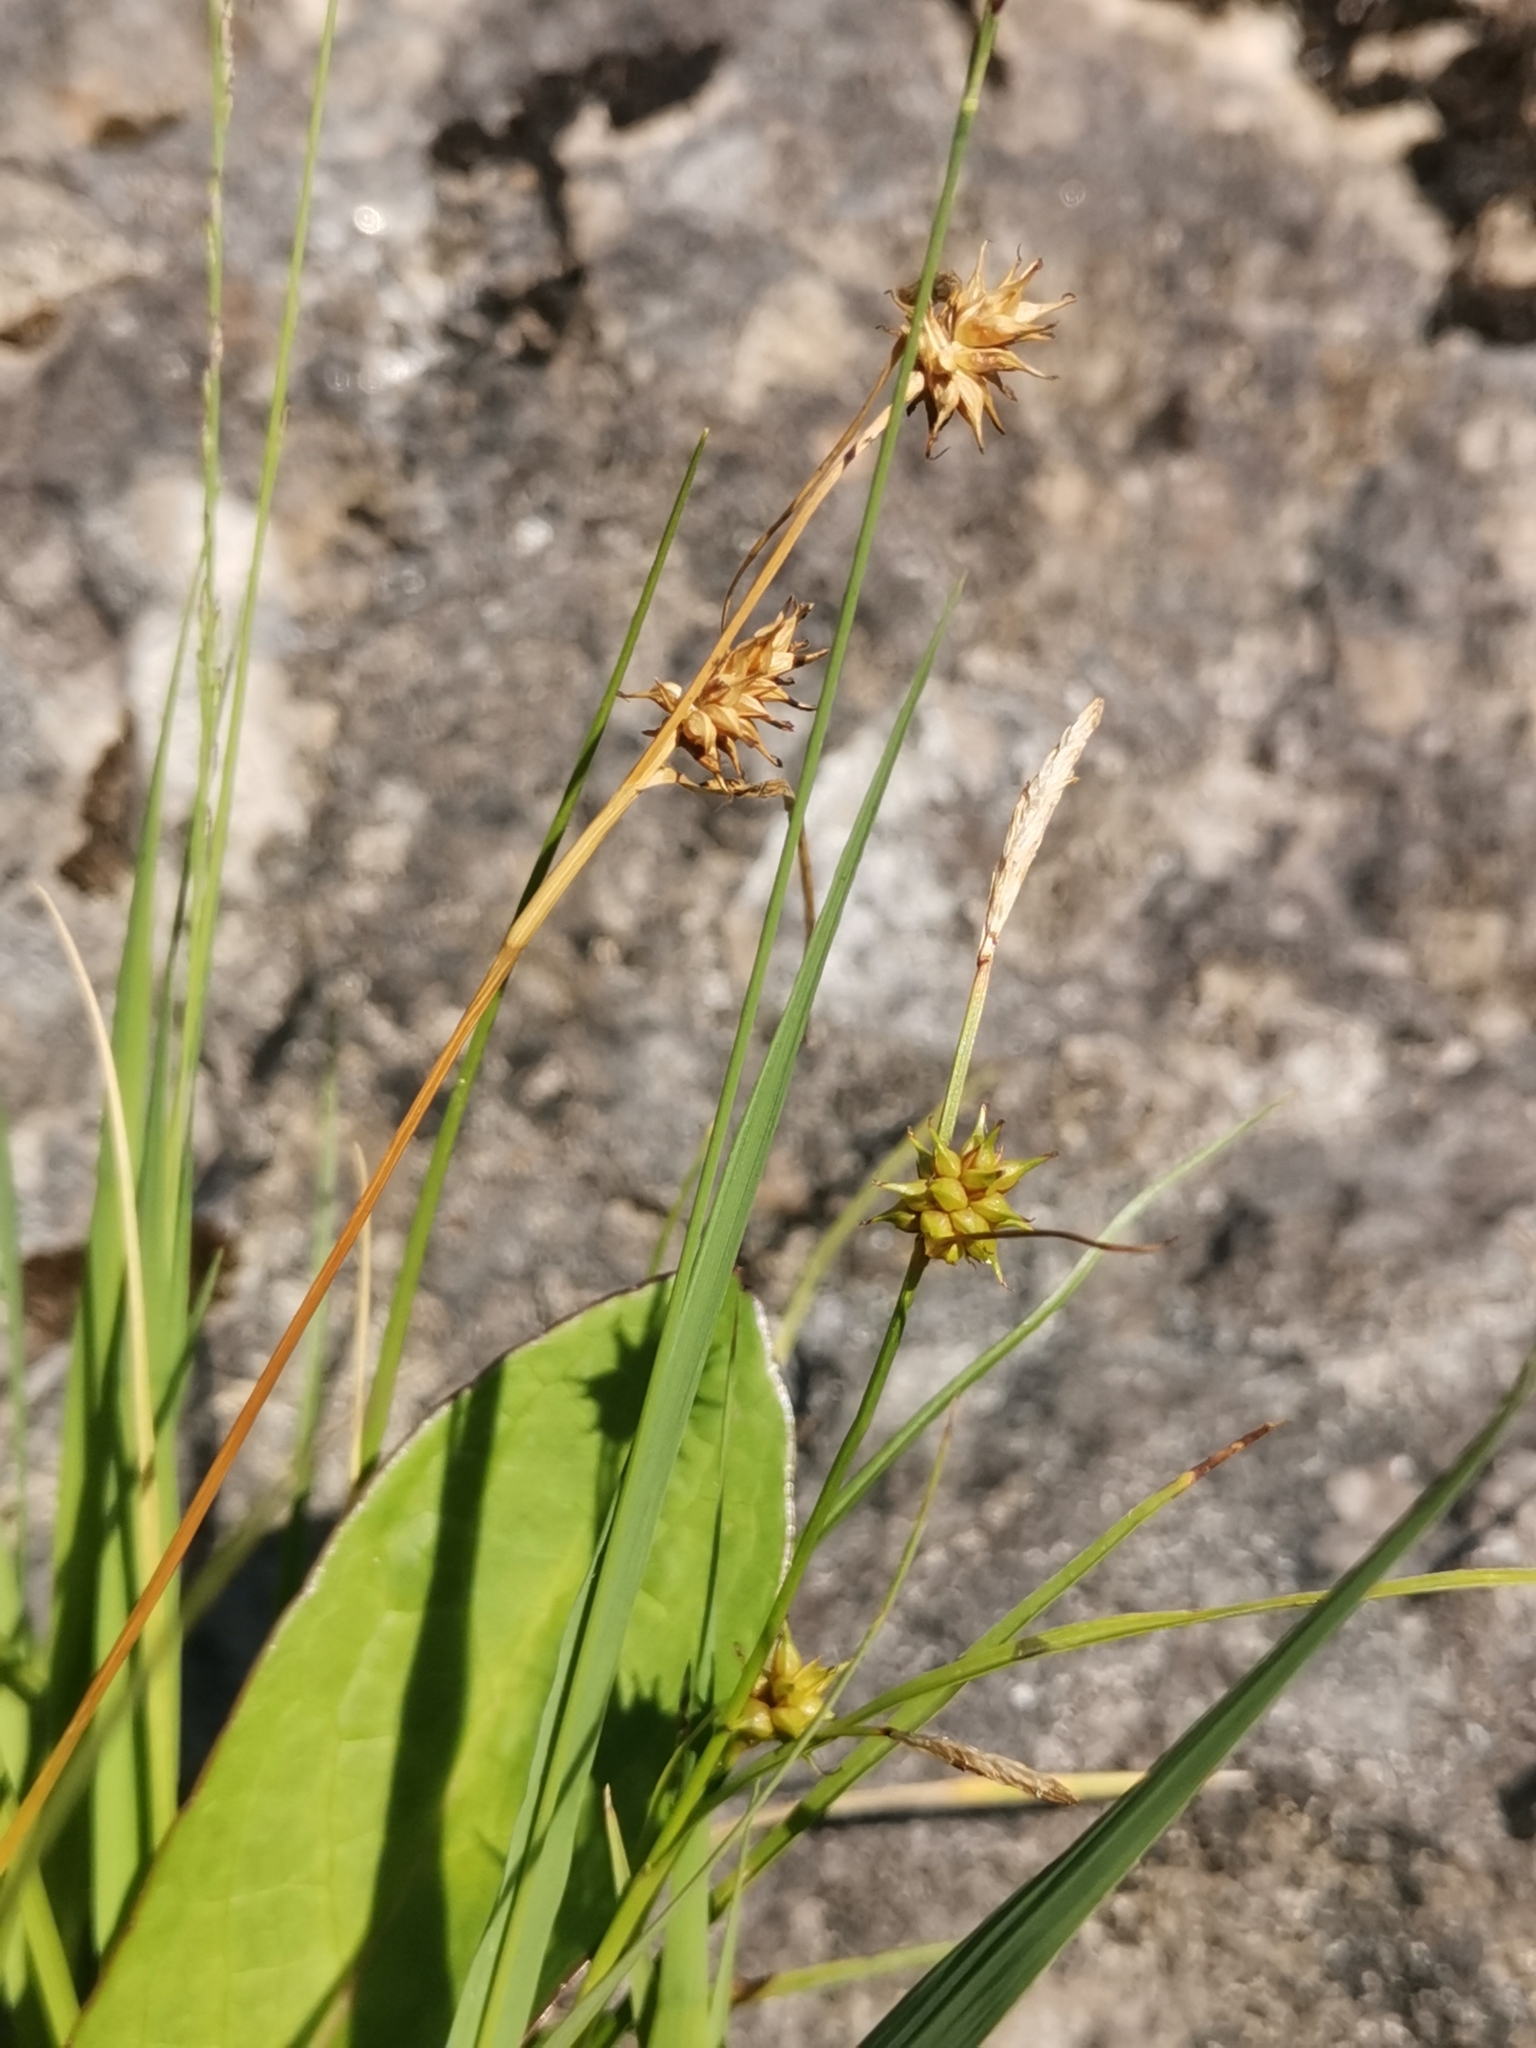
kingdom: Plantae
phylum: Tracheophyta
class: Liliopsida
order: Poales
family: Cyperaceae
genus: Carex
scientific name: Carex lepidocarpa
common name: Long-stalked yellow-sedge
